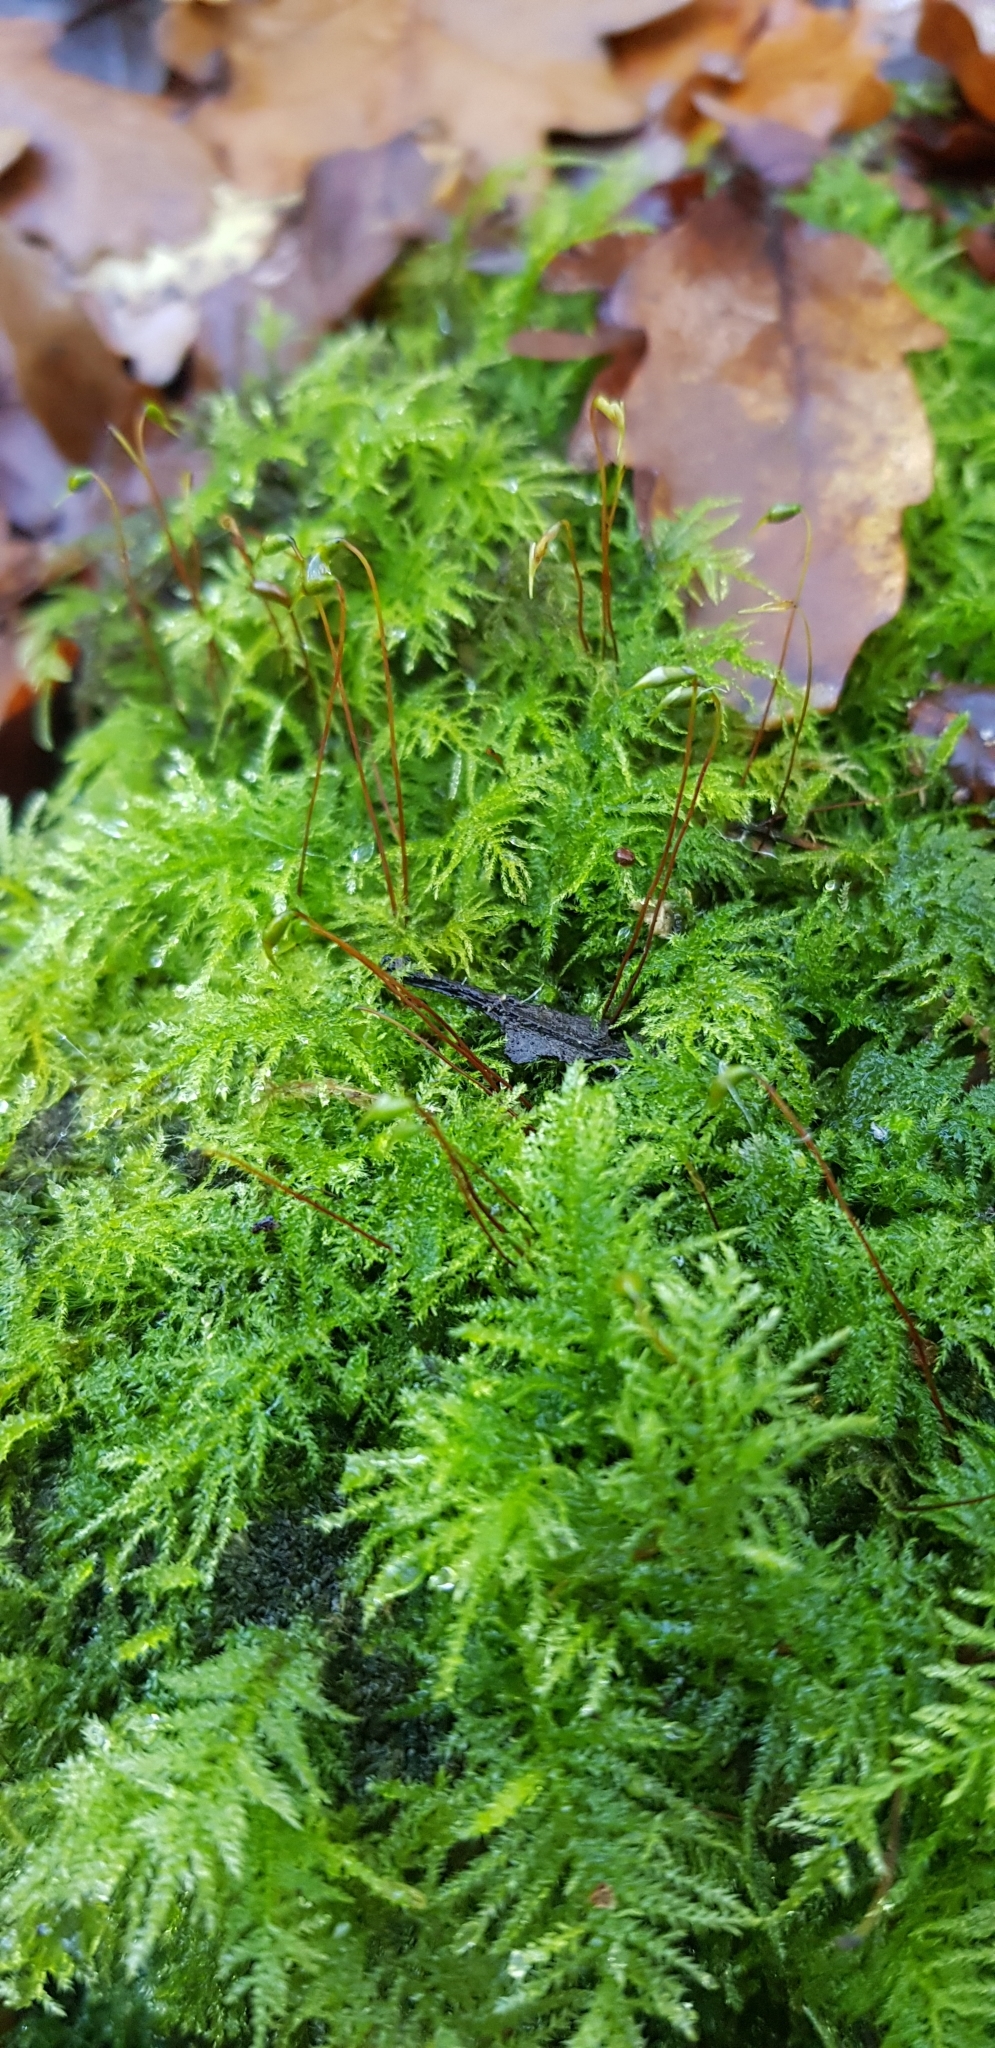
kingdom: Plantae
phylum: Bryophyta
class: Bryopsida
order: Hypnales
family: Brachytheciaceae
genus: Kindbergia
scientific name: Kindbergia praelonga
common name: Slender beaked moss
